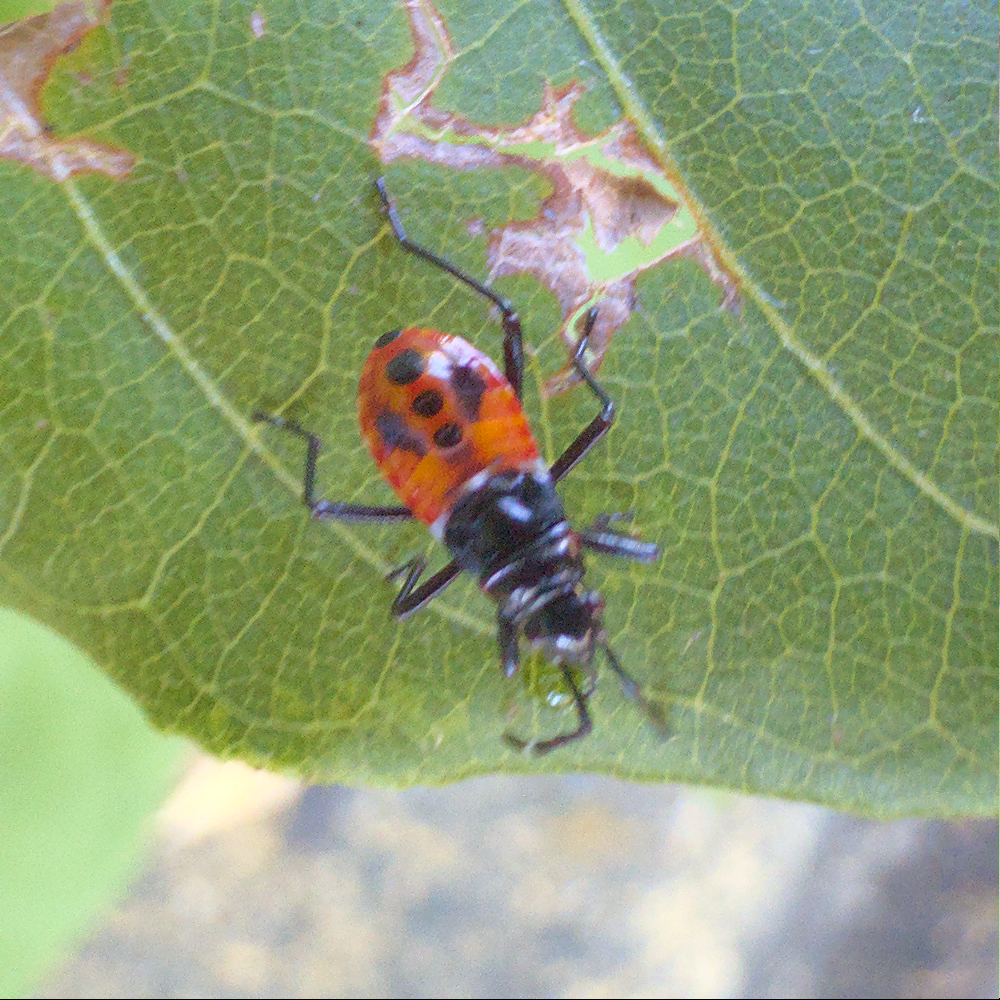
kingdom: Animalia
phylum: Arthropoda
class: Insecta
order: Hemiptera
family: Pyrrhocoridae
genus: Dindymus
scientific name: Dindymus
